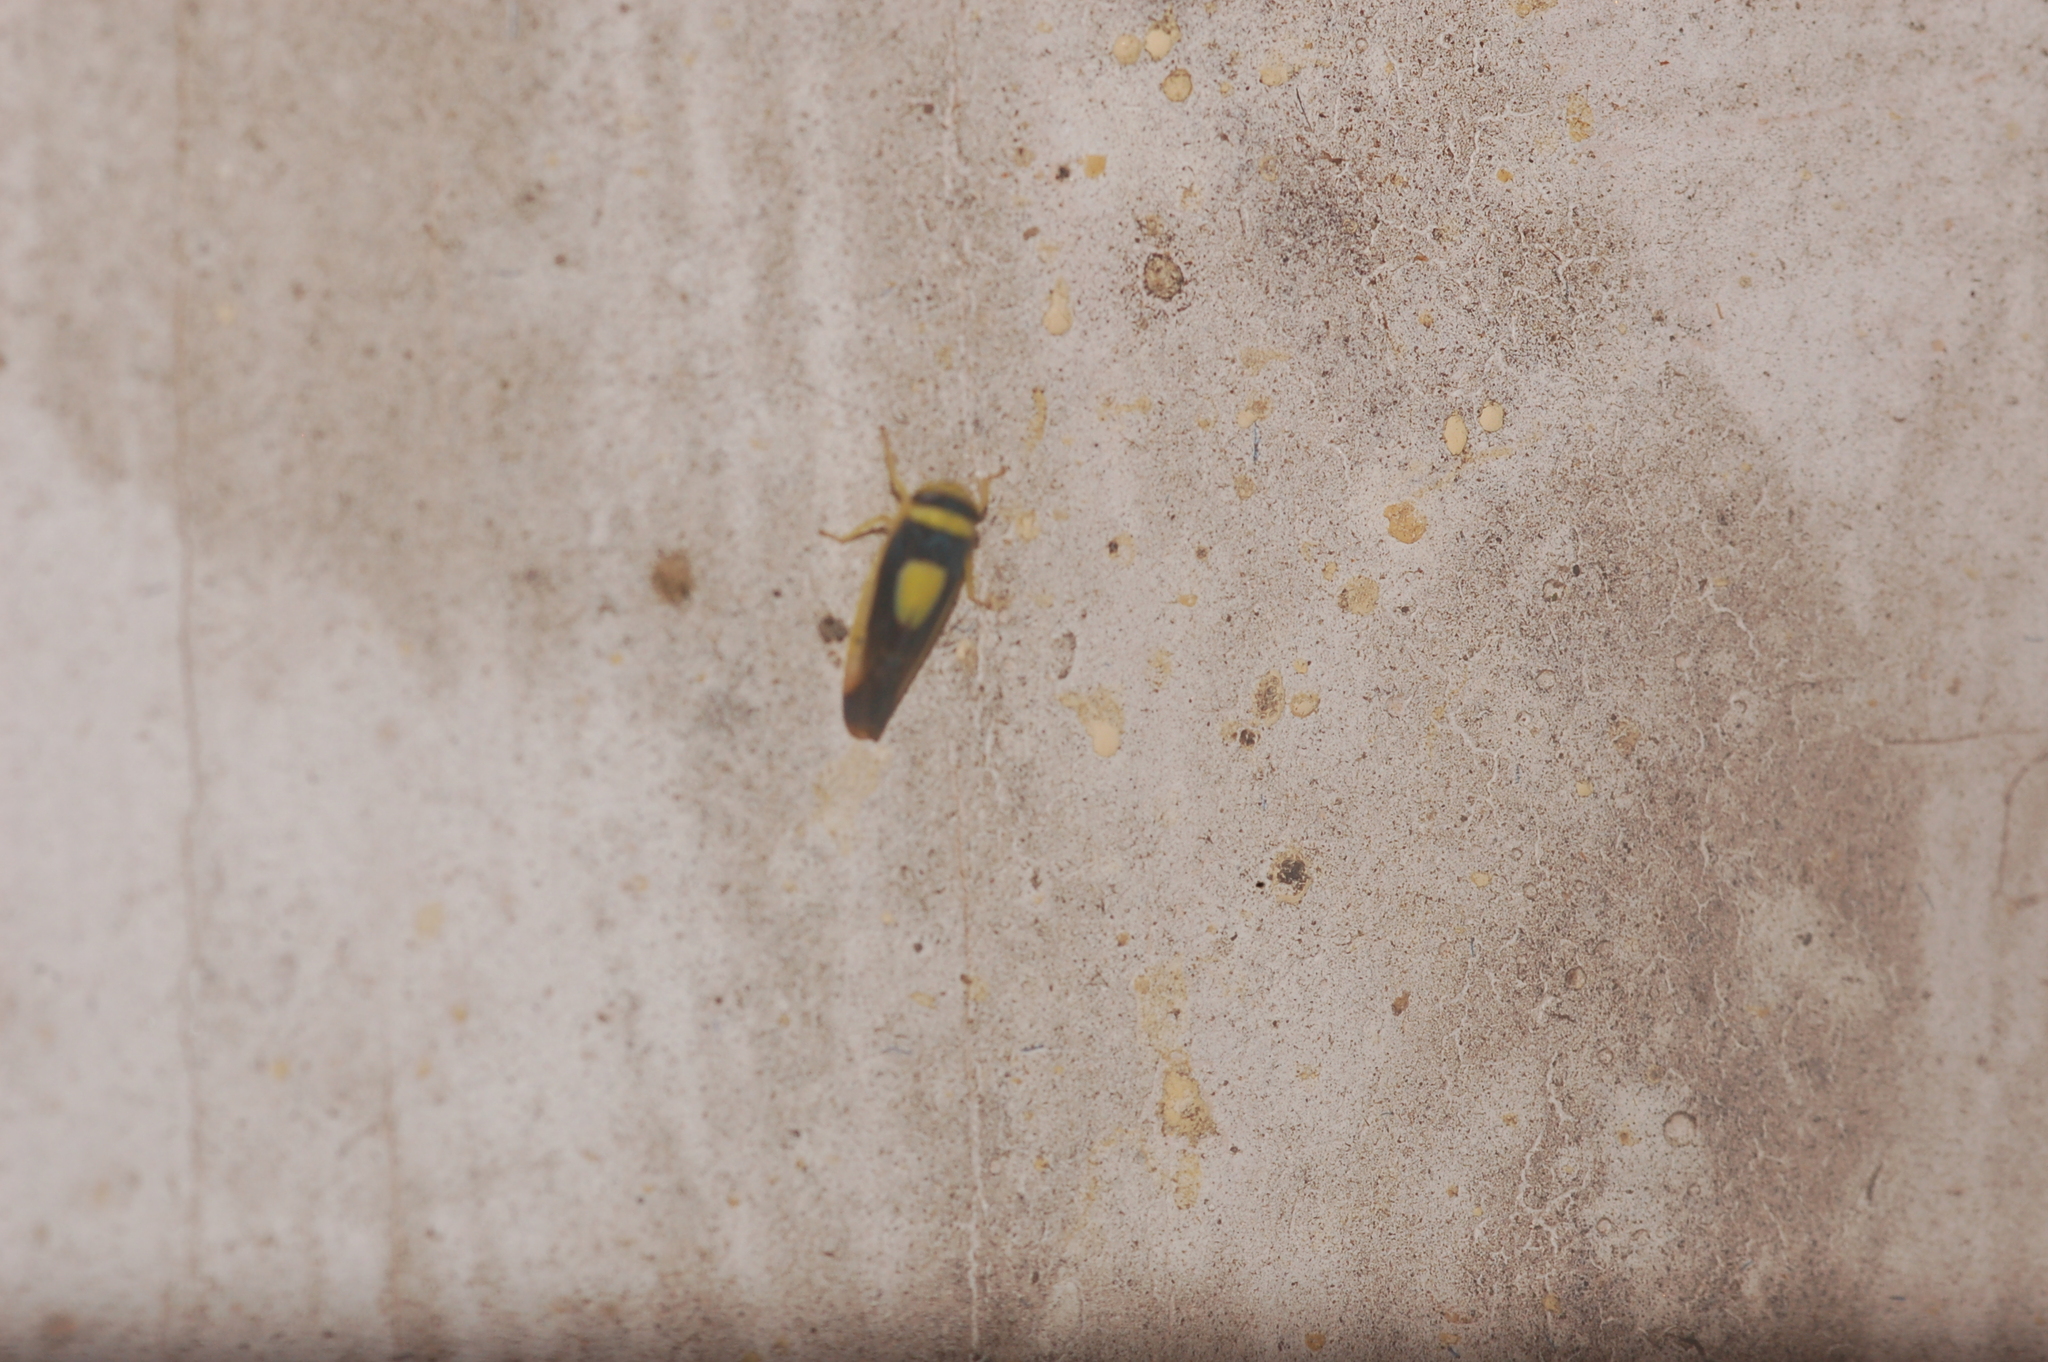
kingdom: Animalia
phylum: Arthropoda
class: Insecta
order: Hemiptera
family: Cicadellidae
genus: Colladonus
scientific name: Colladonus clitellarius
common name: The saddleback leafhopper
